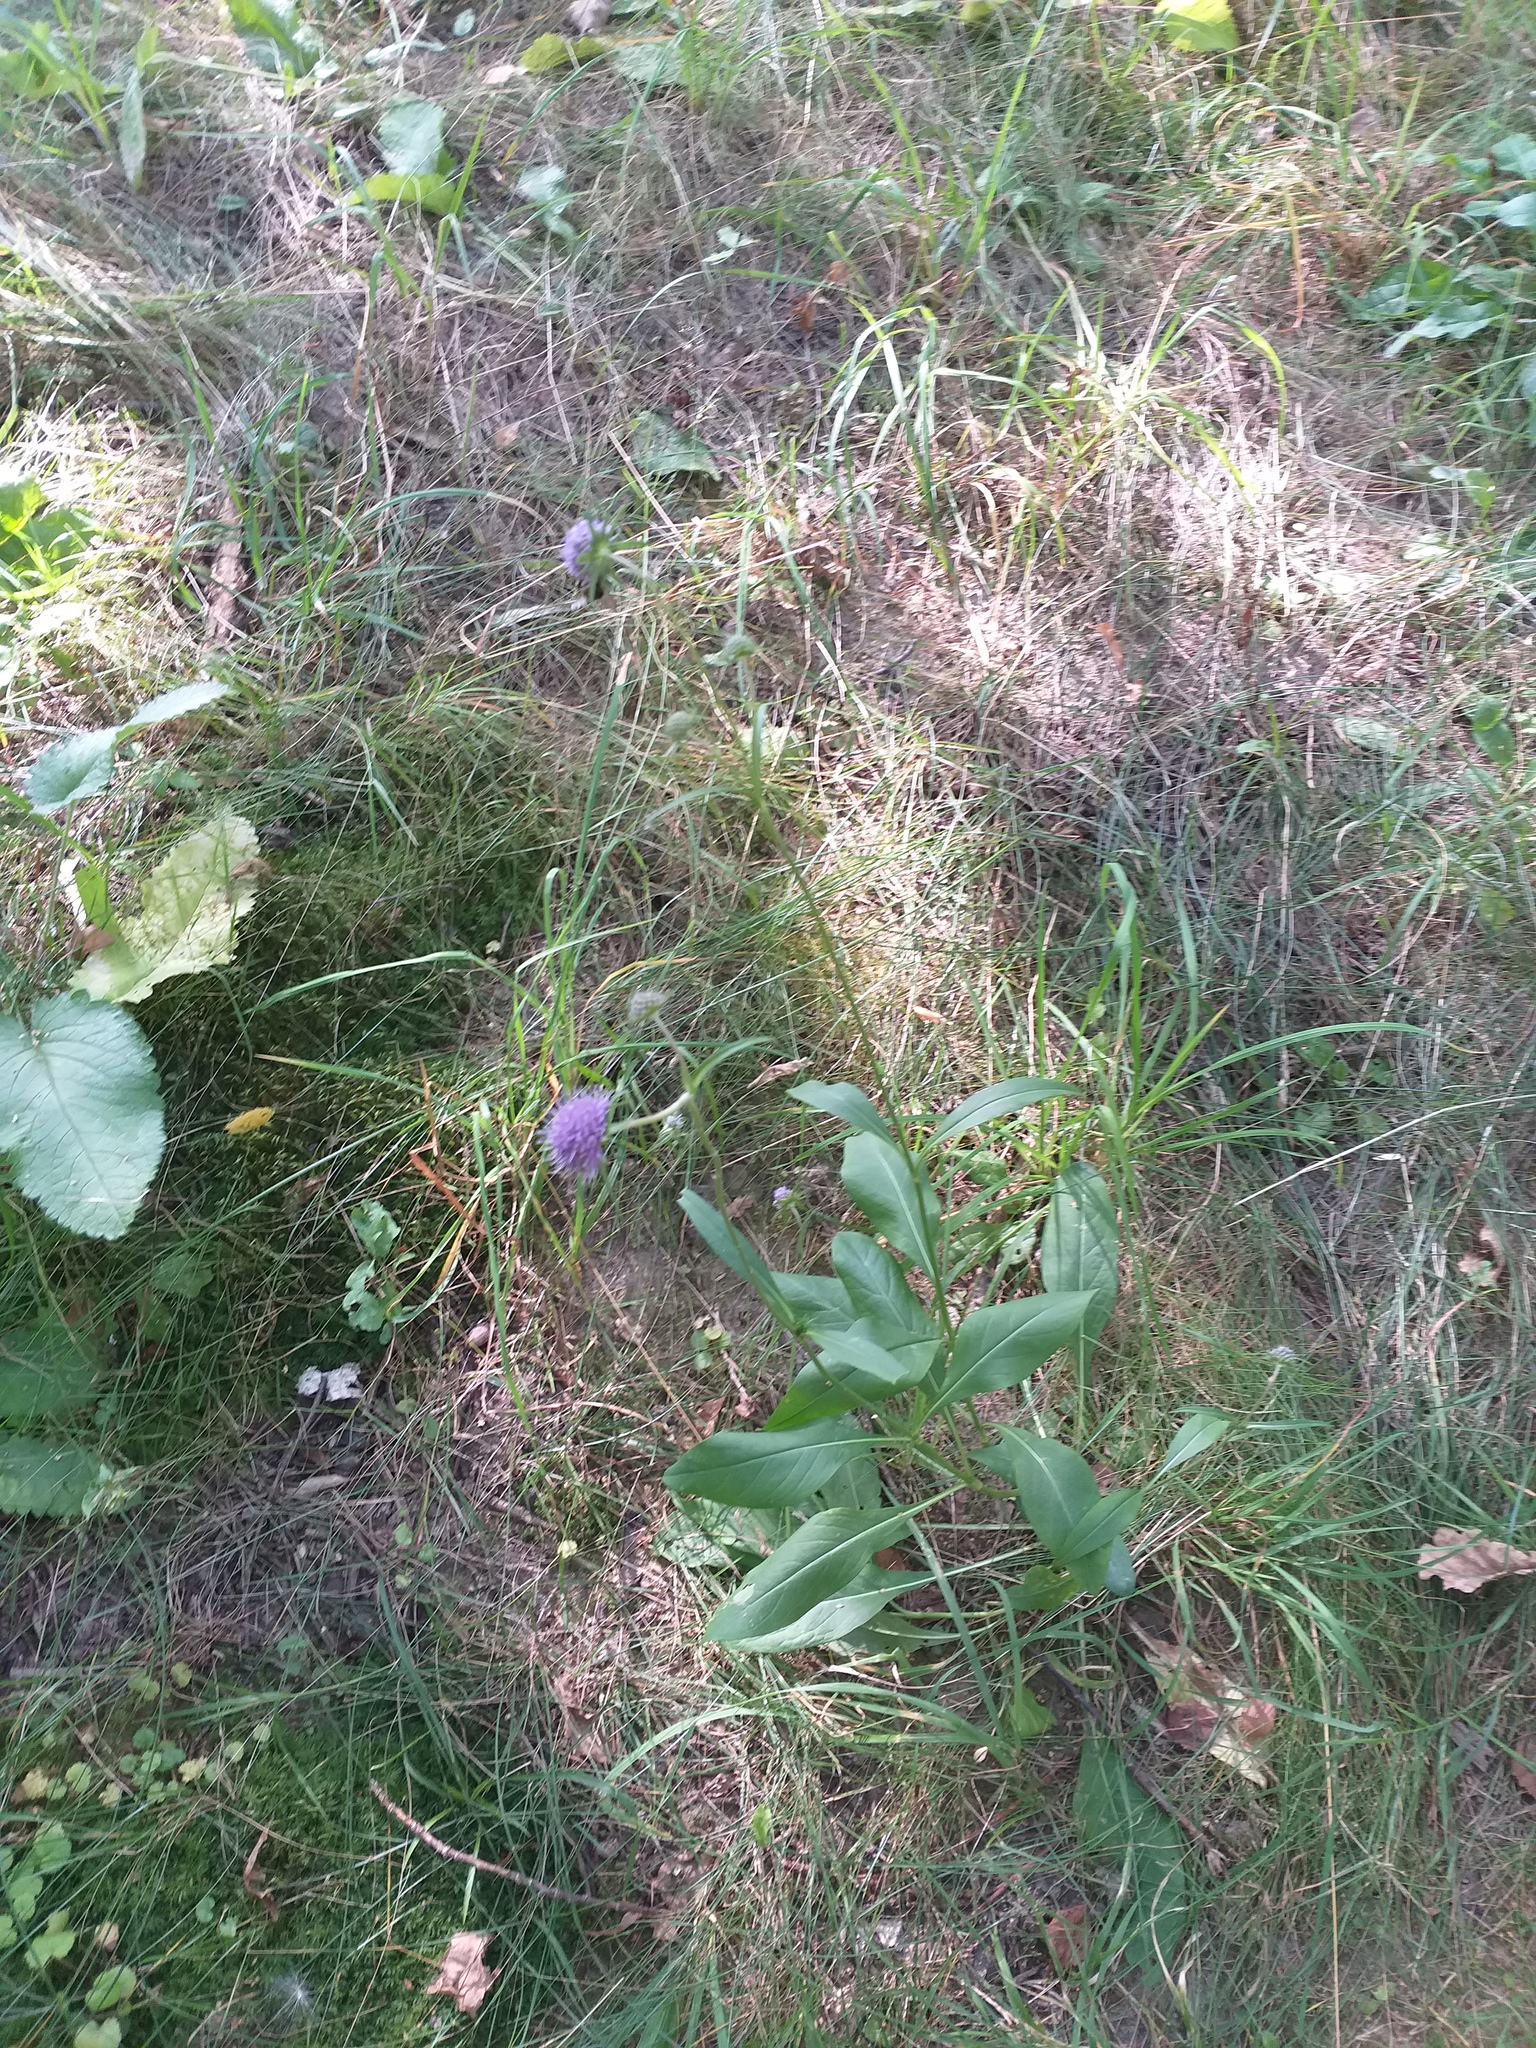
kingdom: Plantae
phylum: Tracheophyta
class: Magnoliopsida
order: Dipsacales
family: Caprifoliaceae
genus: Succisa
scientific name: Succisa pratensis
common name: Devil's-bit
